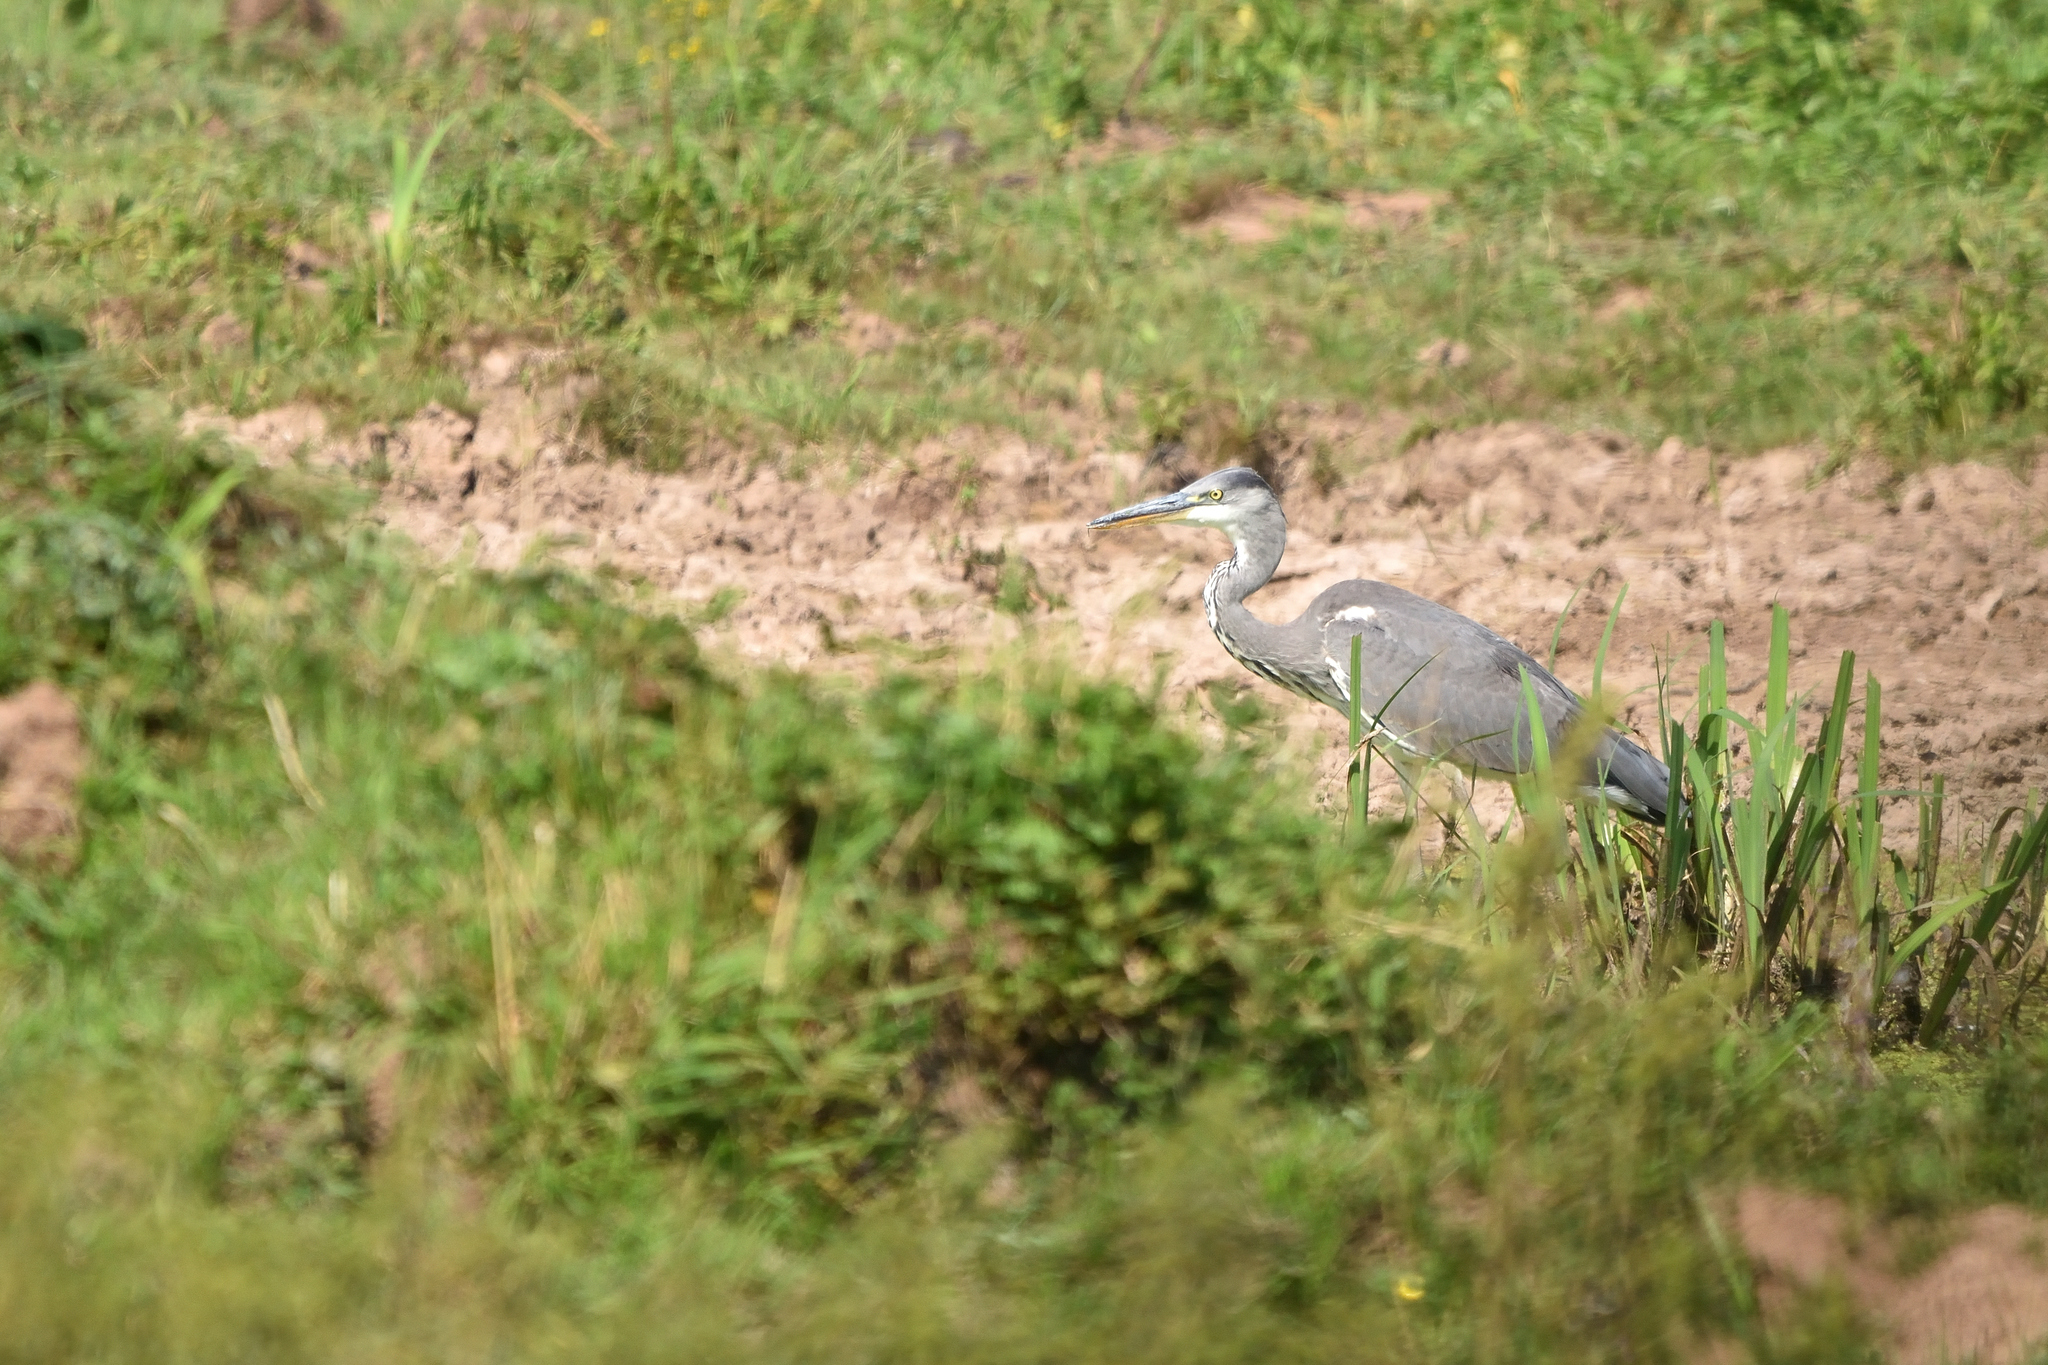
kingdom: Animalia
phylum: Chordata
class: Aves
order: Pelecaniformes
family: Ardeidae
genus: Ardea
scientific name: Ardea cinerea
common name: Grey heron
